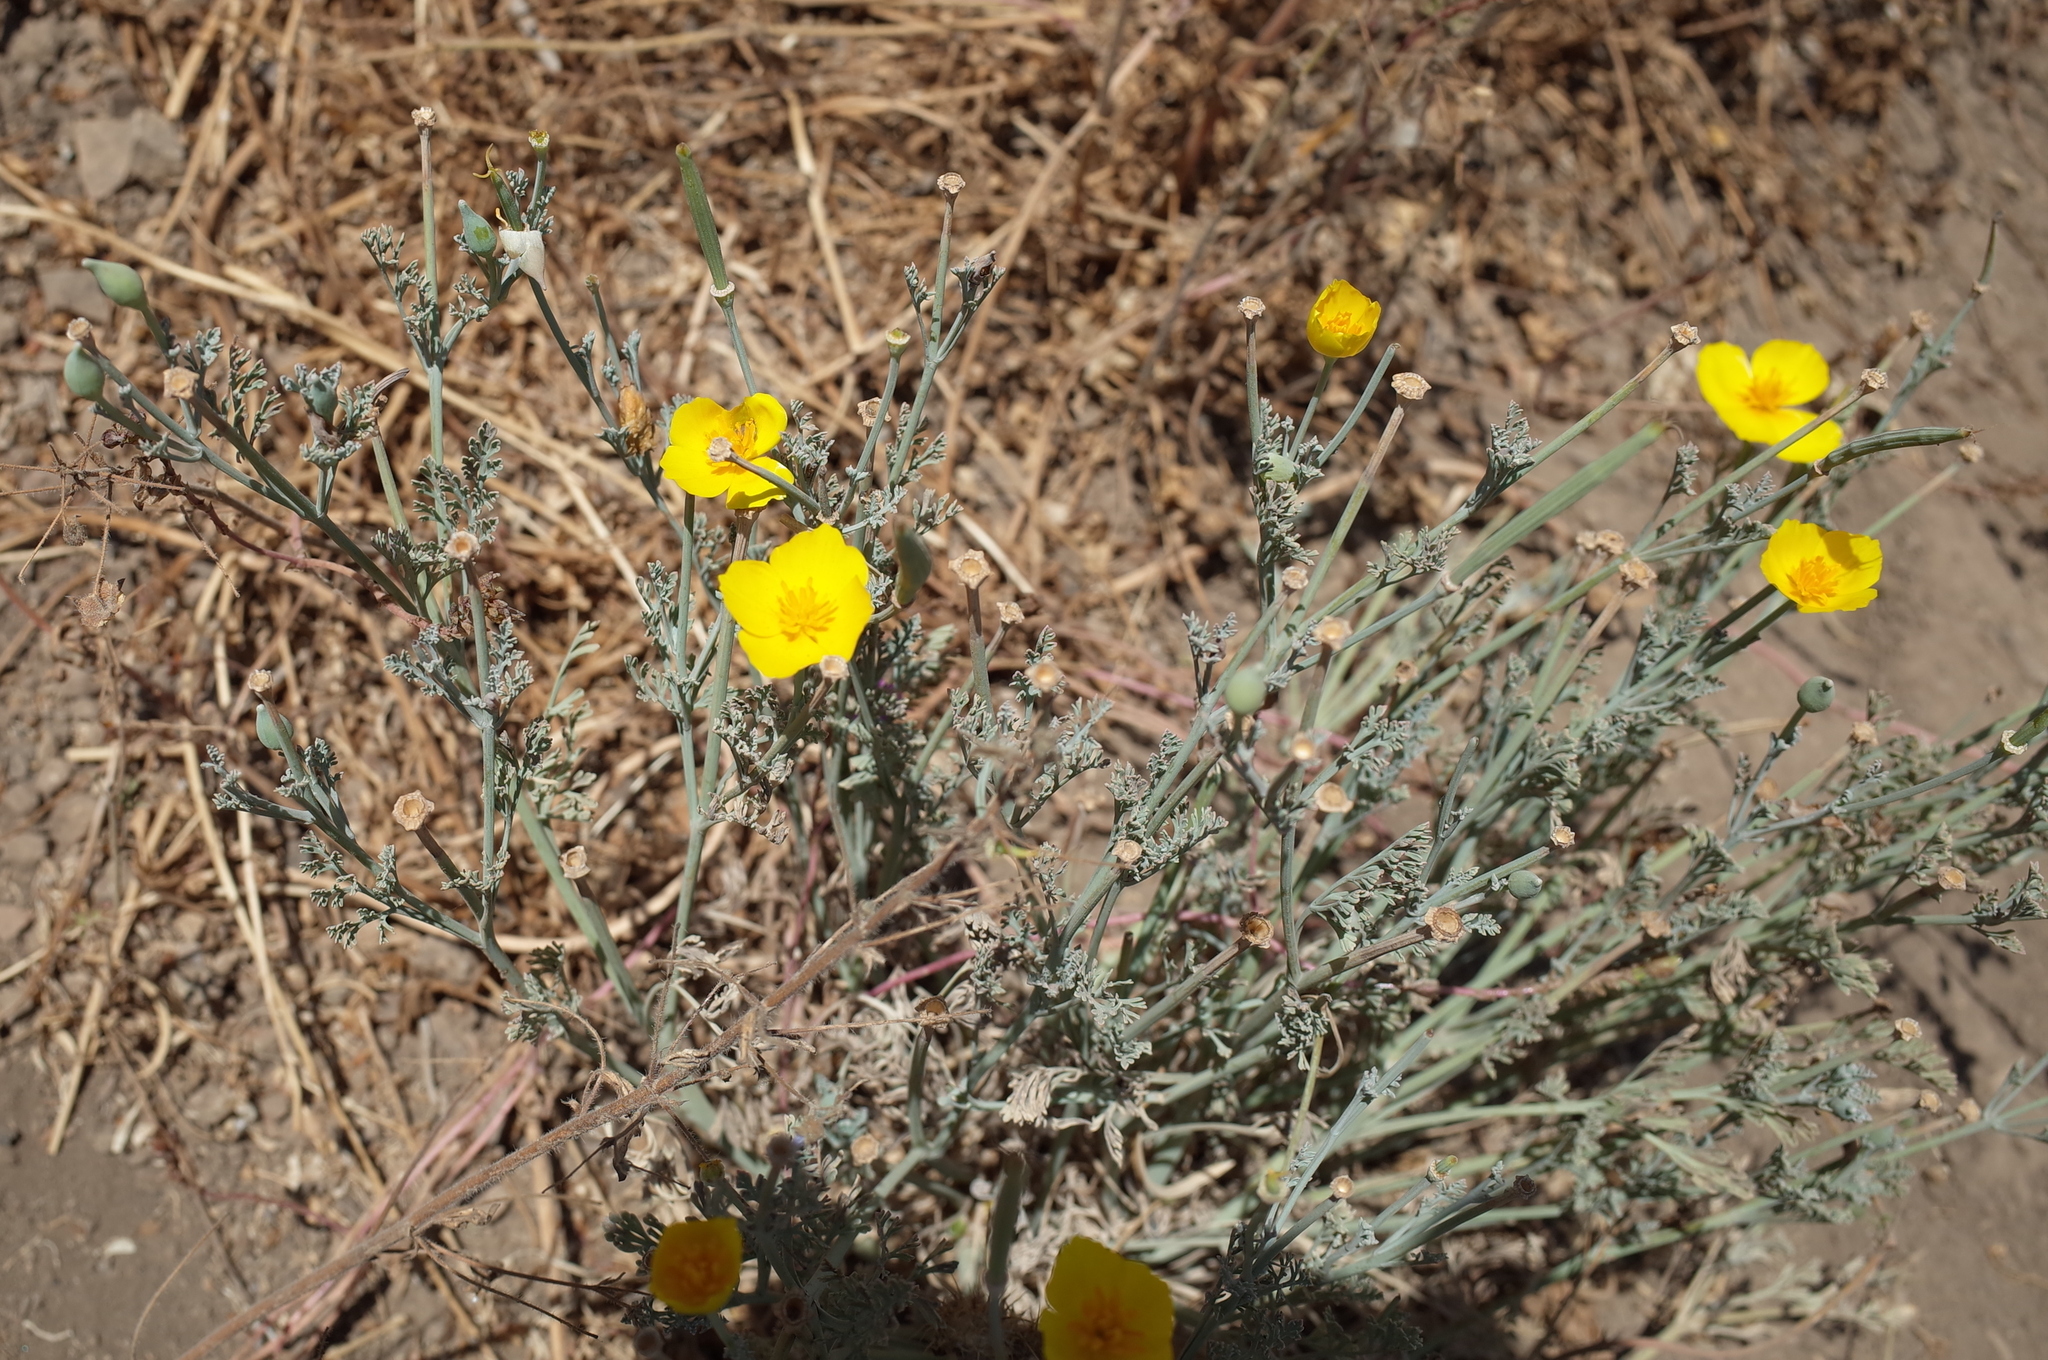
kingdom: Plantae
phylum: Tracheophyta
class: Magnoliopsida
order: Ranunculales
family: Papaveraceae
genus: Eschscholzia
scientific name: Eschscholzia californica
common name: California poppy
